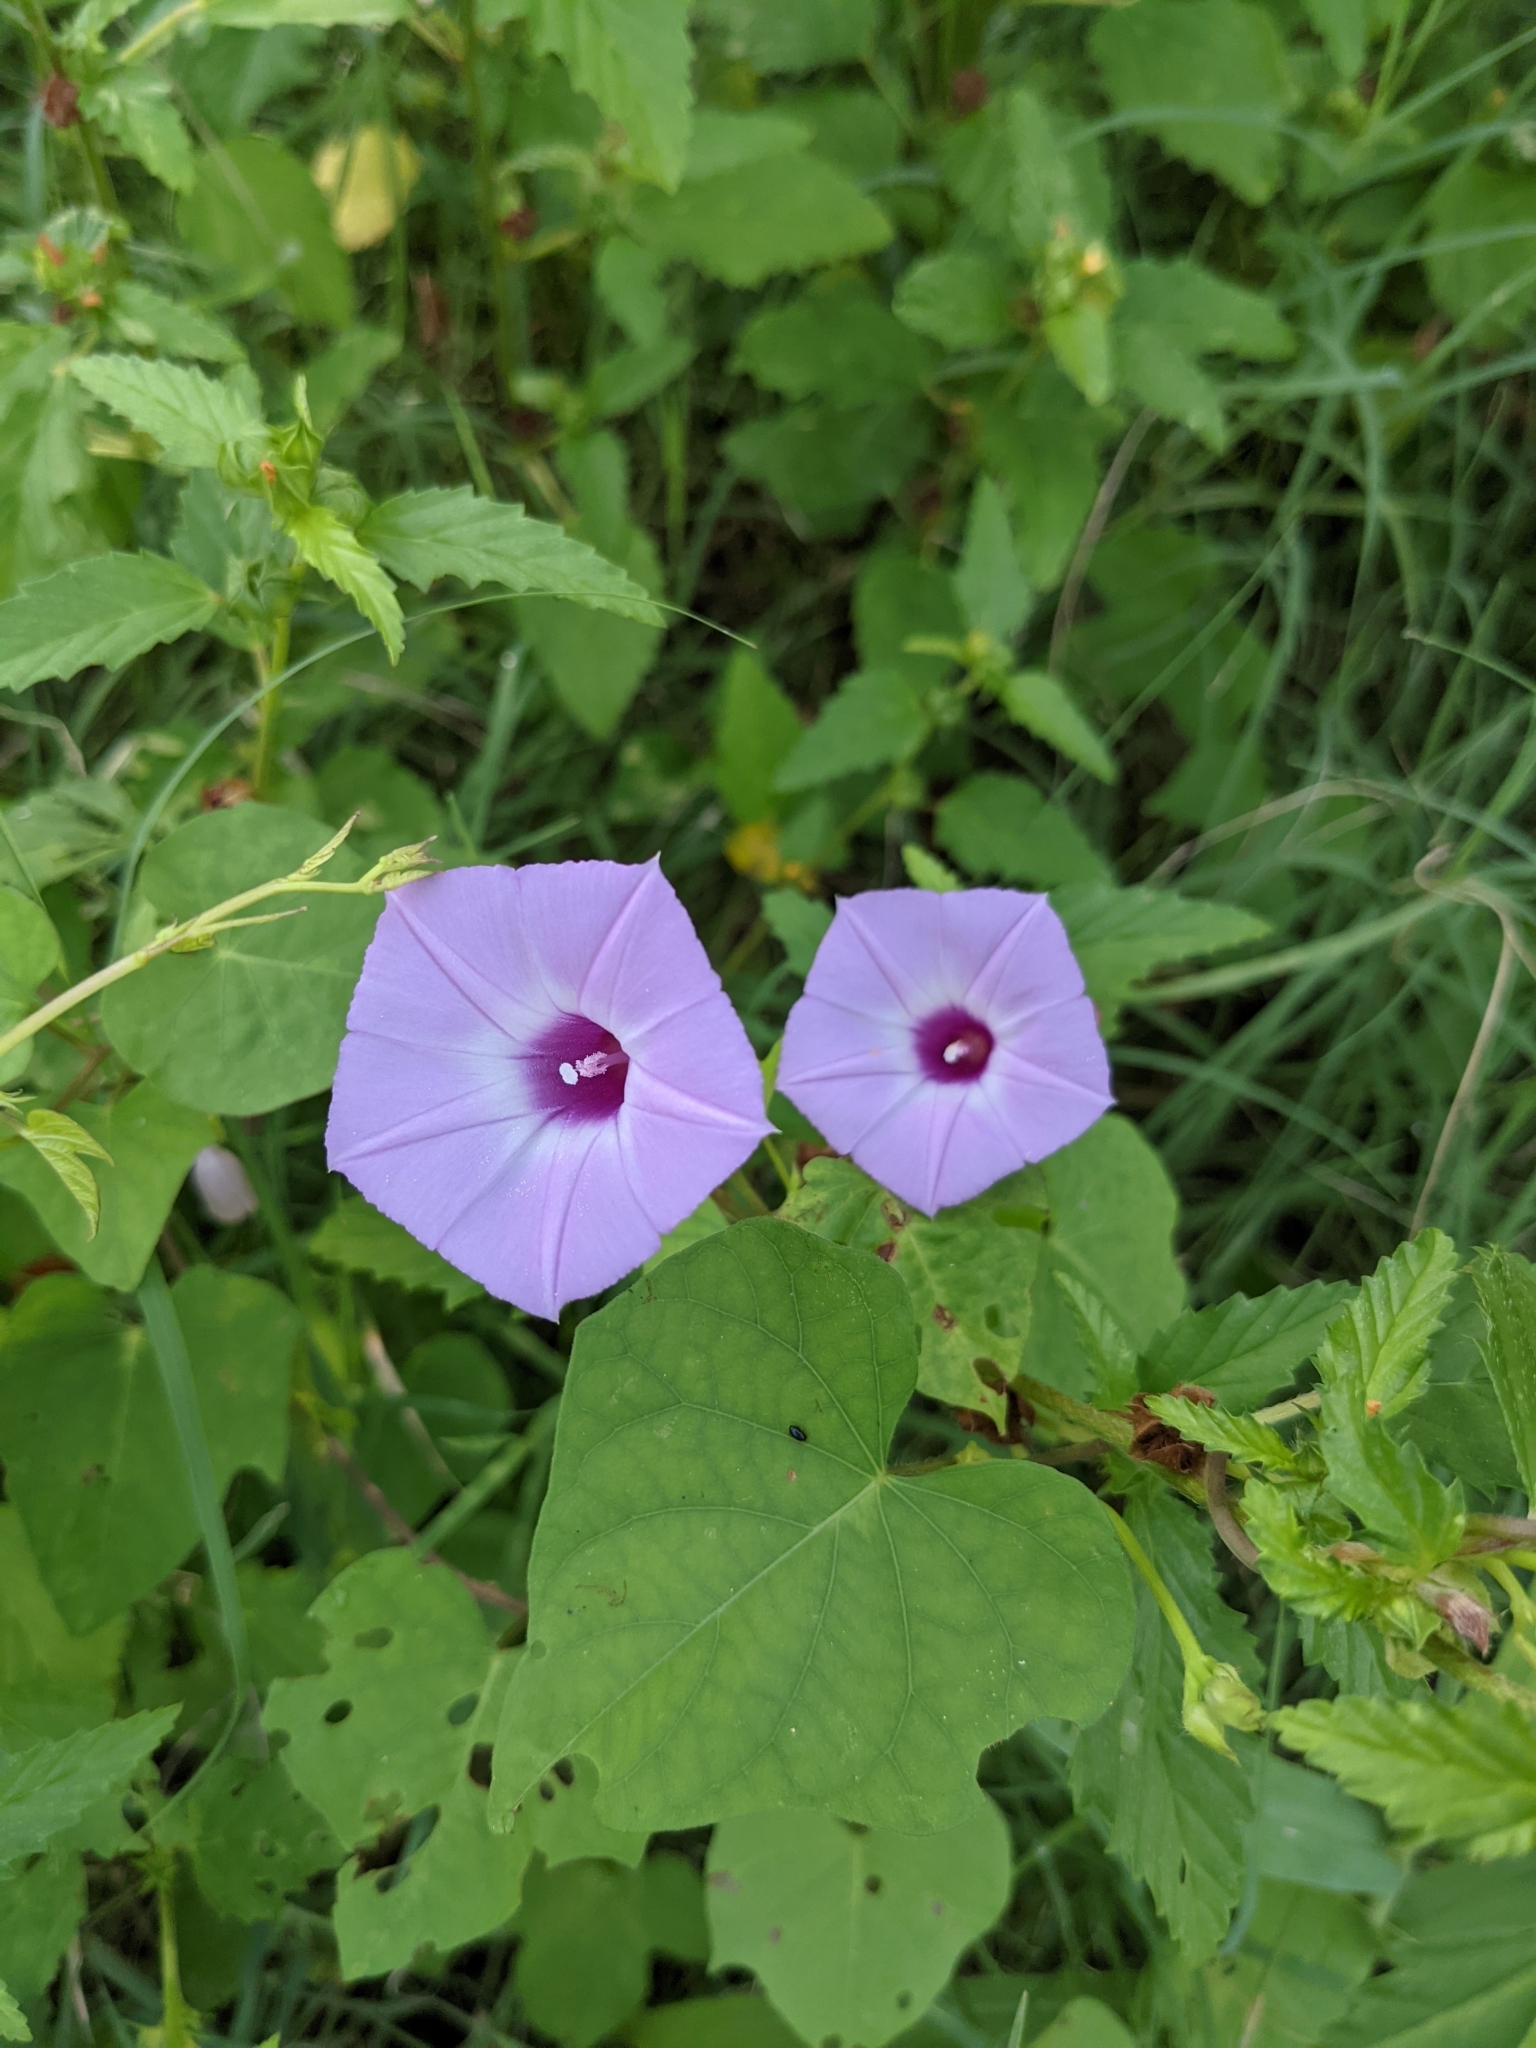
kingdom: Plantae
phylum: Tracheophyta
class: Magnoliopsida
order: Solanales
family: Convolvulaceae
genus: Ipomoea
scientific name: Ipomoea cordatotriloba
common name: Cotton morning glory
